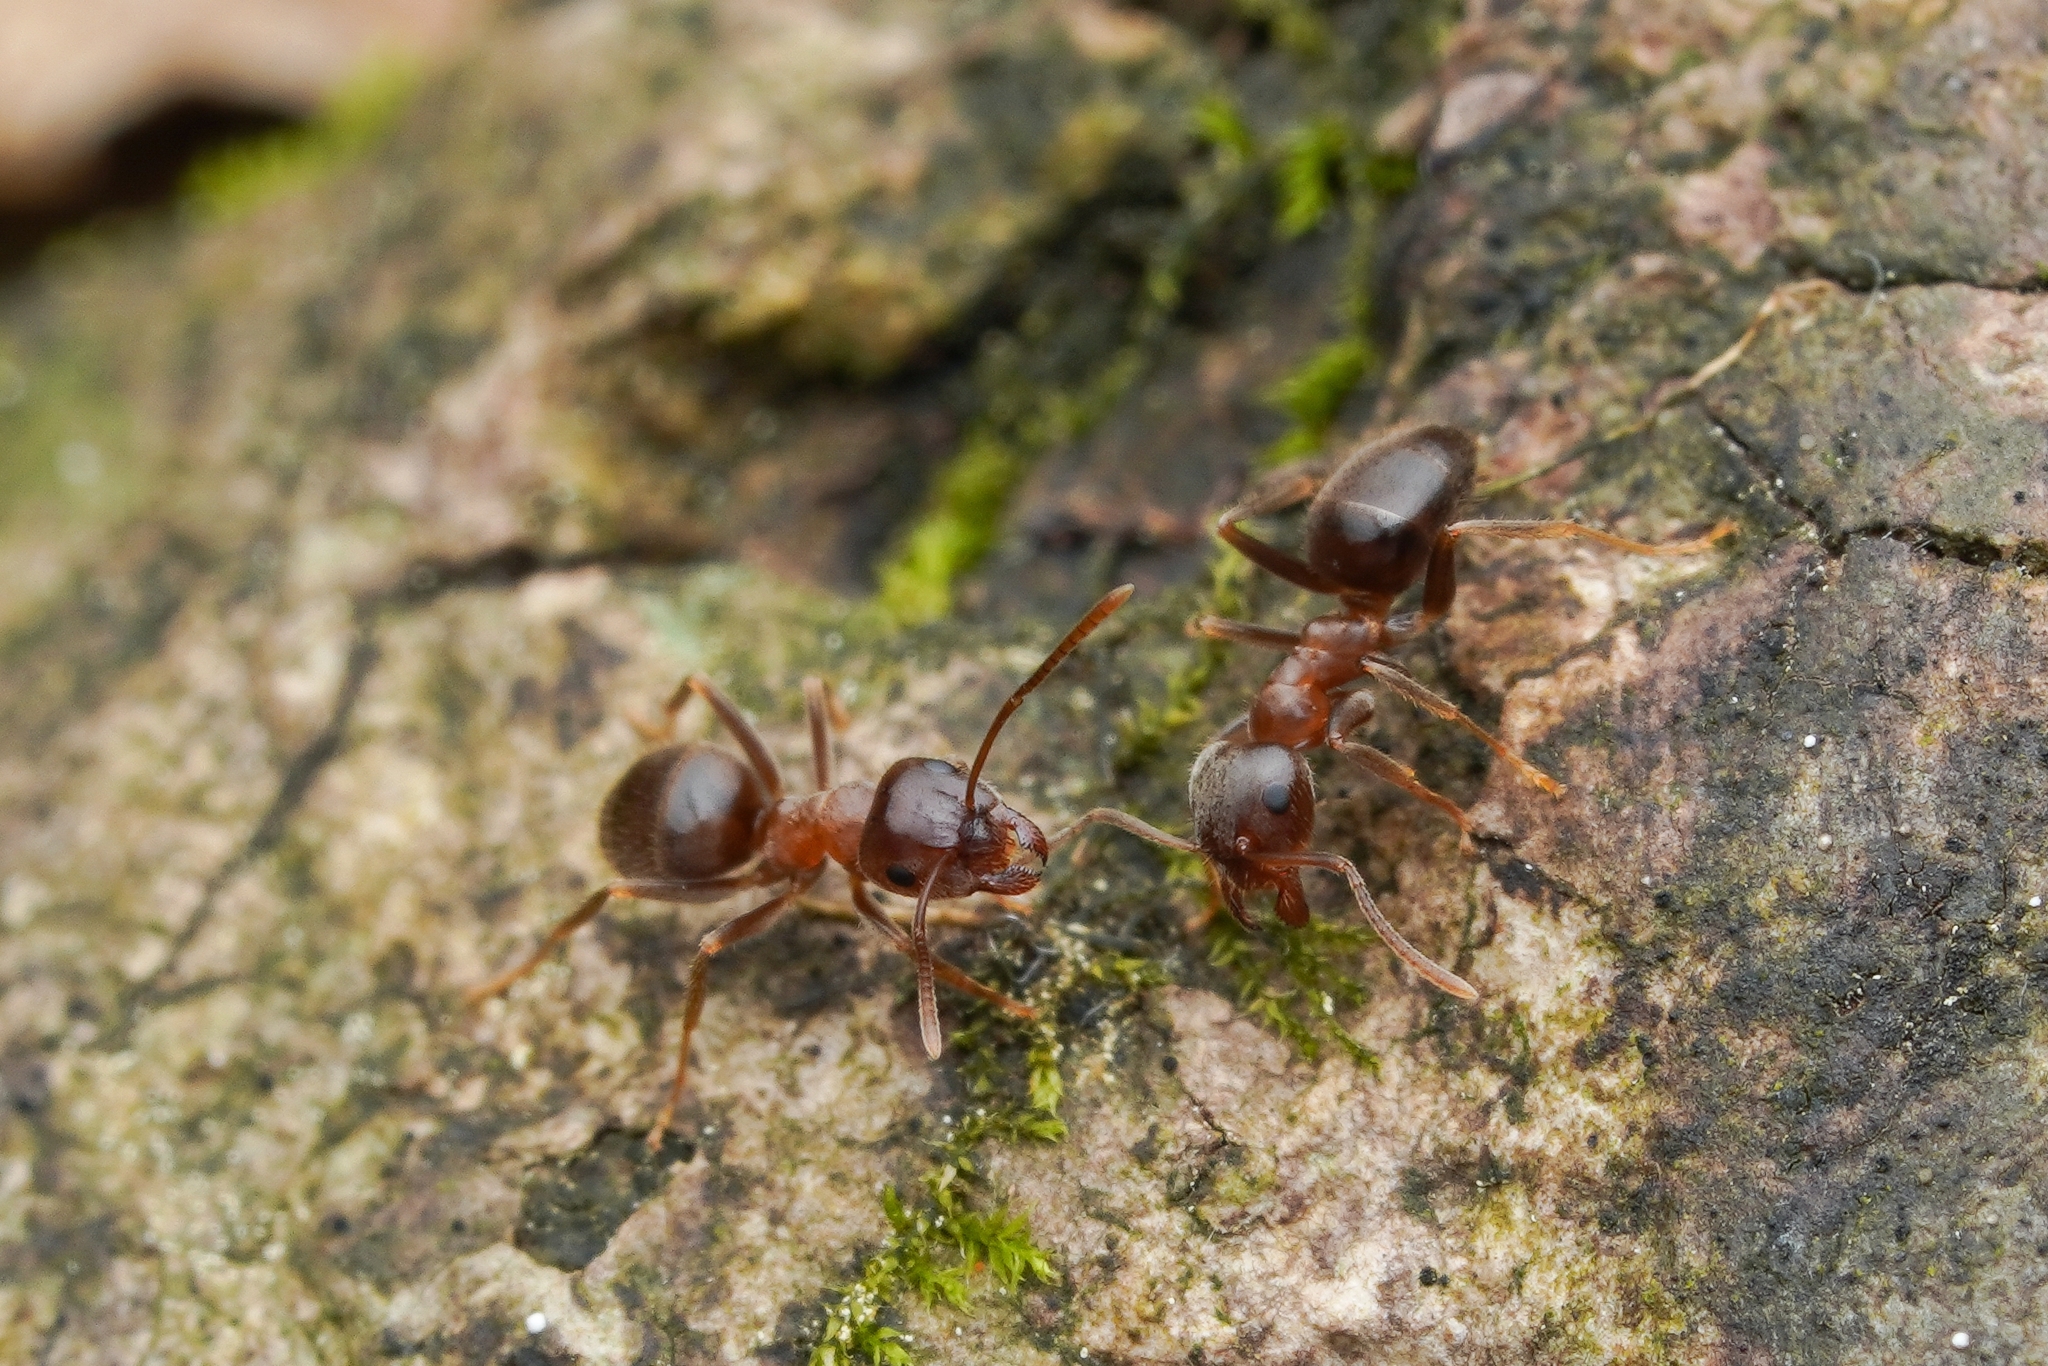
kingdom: Animalia
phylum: Arthropoda
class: Insecta
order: Hymenoptera
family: Formicidae
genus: Lasius
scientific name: Lasius hayashi
